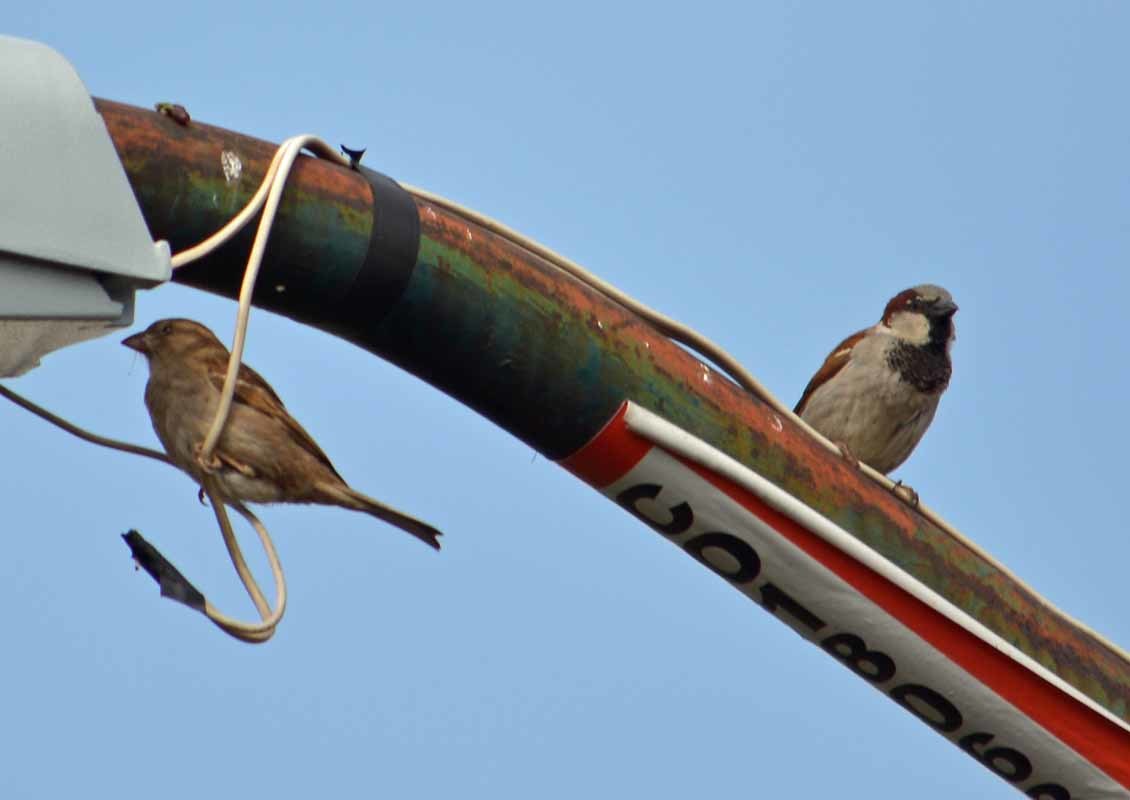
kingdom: Animalia
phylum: Chordata
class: Aves
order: Passeriformes
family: Passeridae
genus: Passer
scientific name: Passer domesticus
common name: House sparrow
